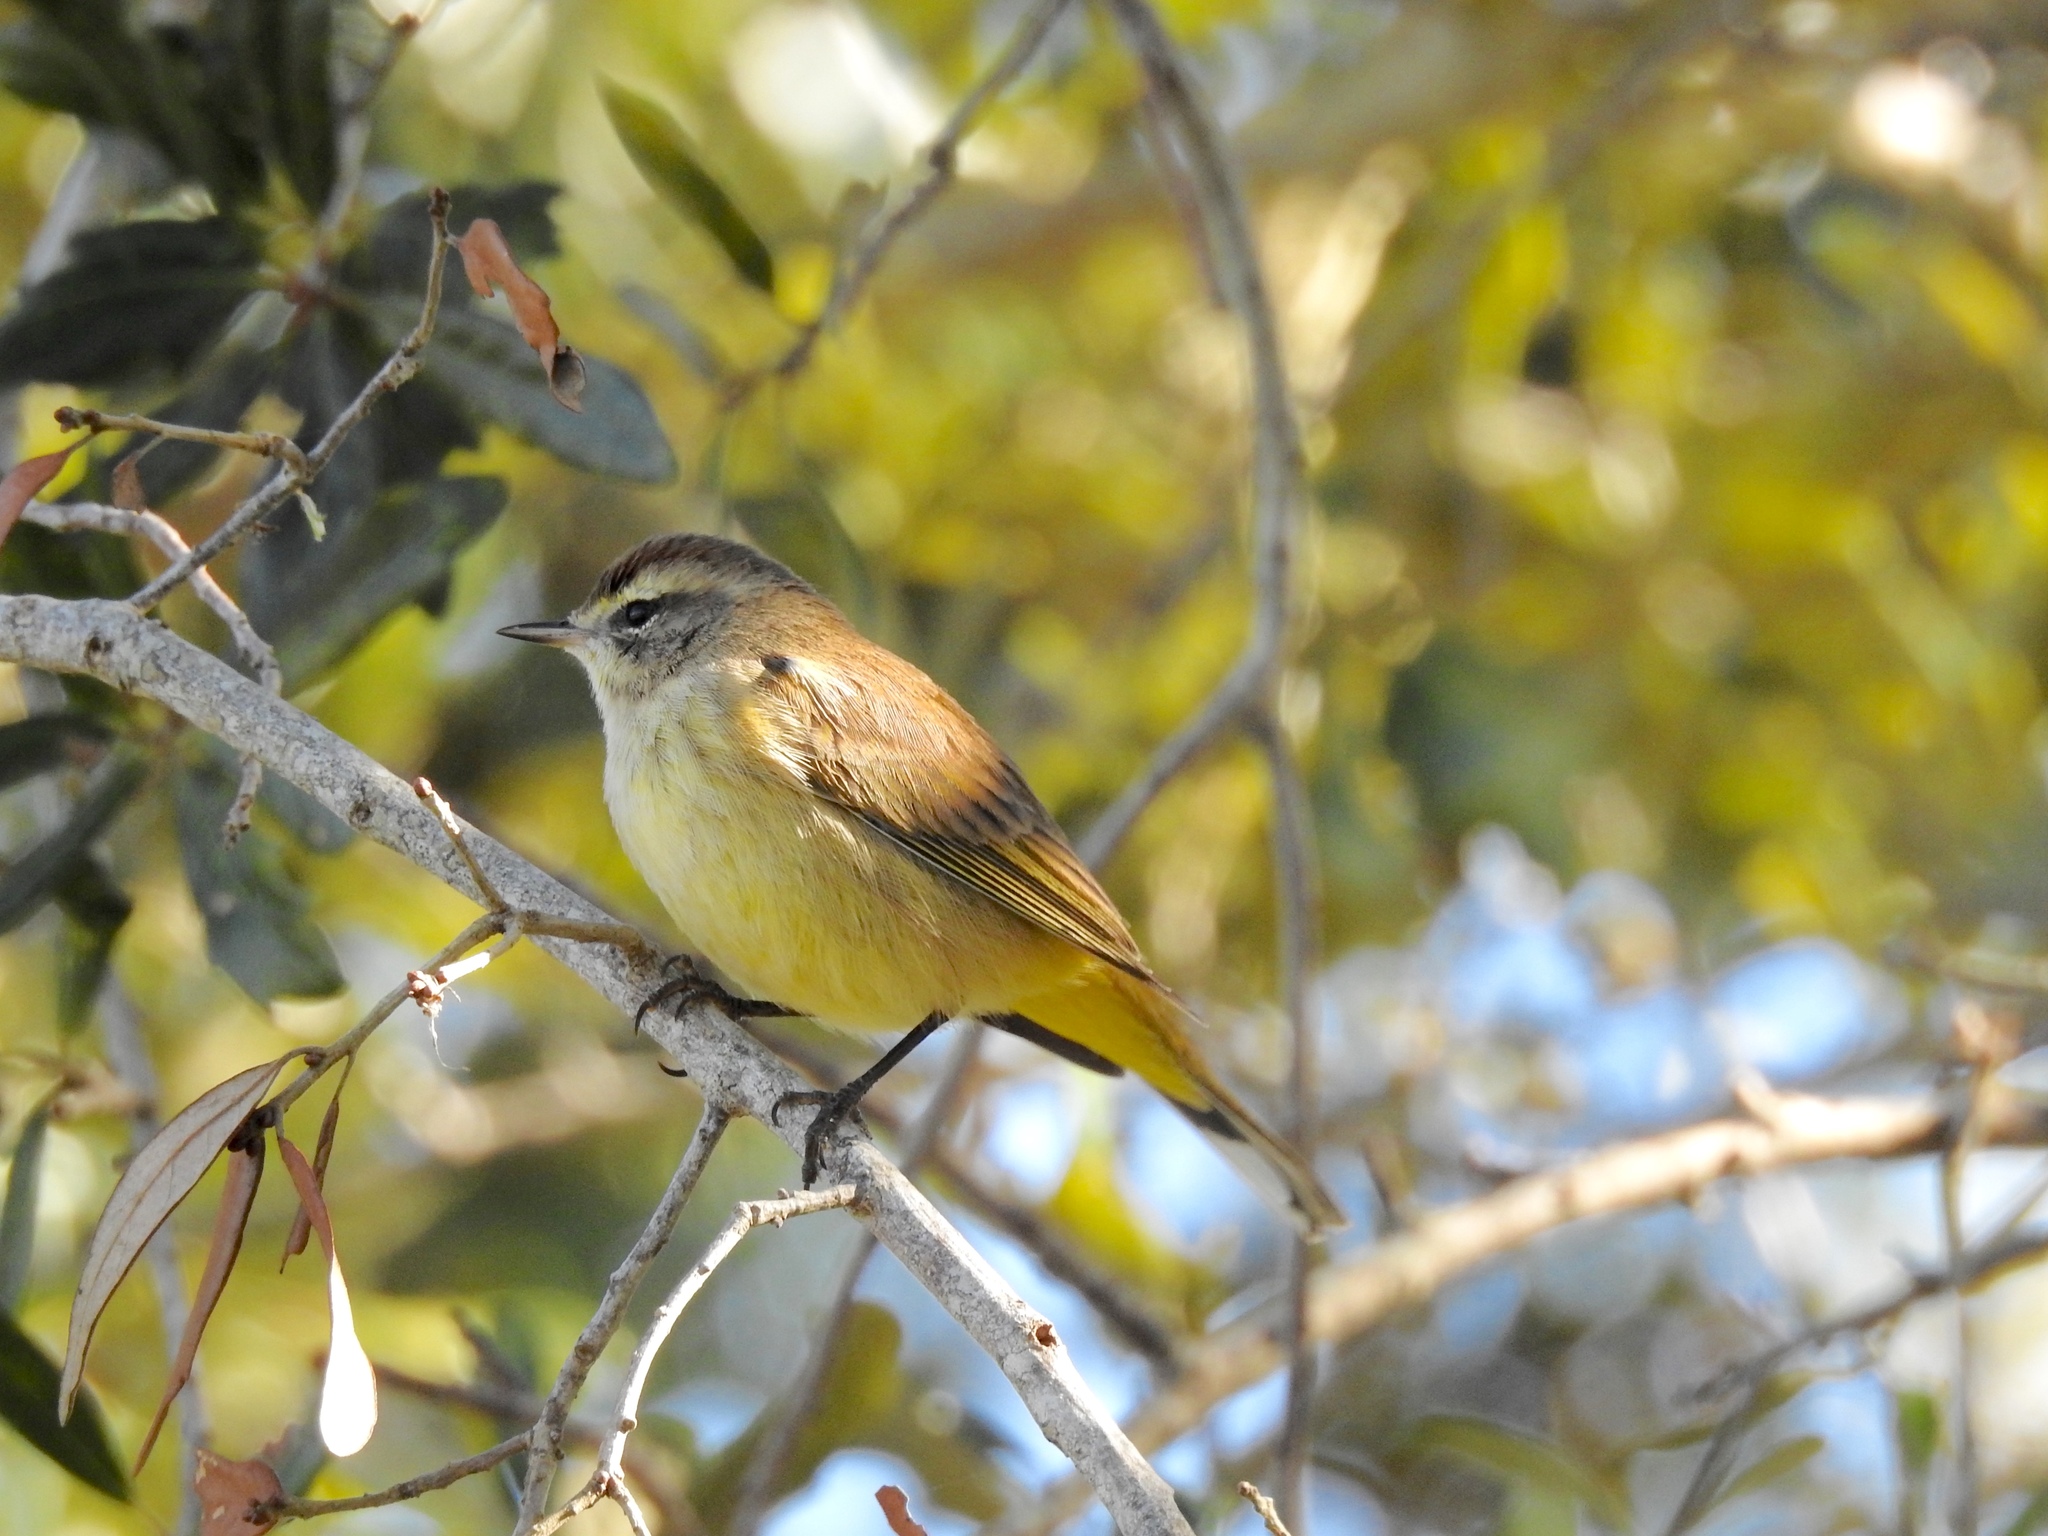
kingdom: Animalia
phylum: Chordata
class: Aves
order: Passeriformes
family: Parulidae
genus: Setophaga
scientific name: Setophaga palmarum
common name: Palm warbler
